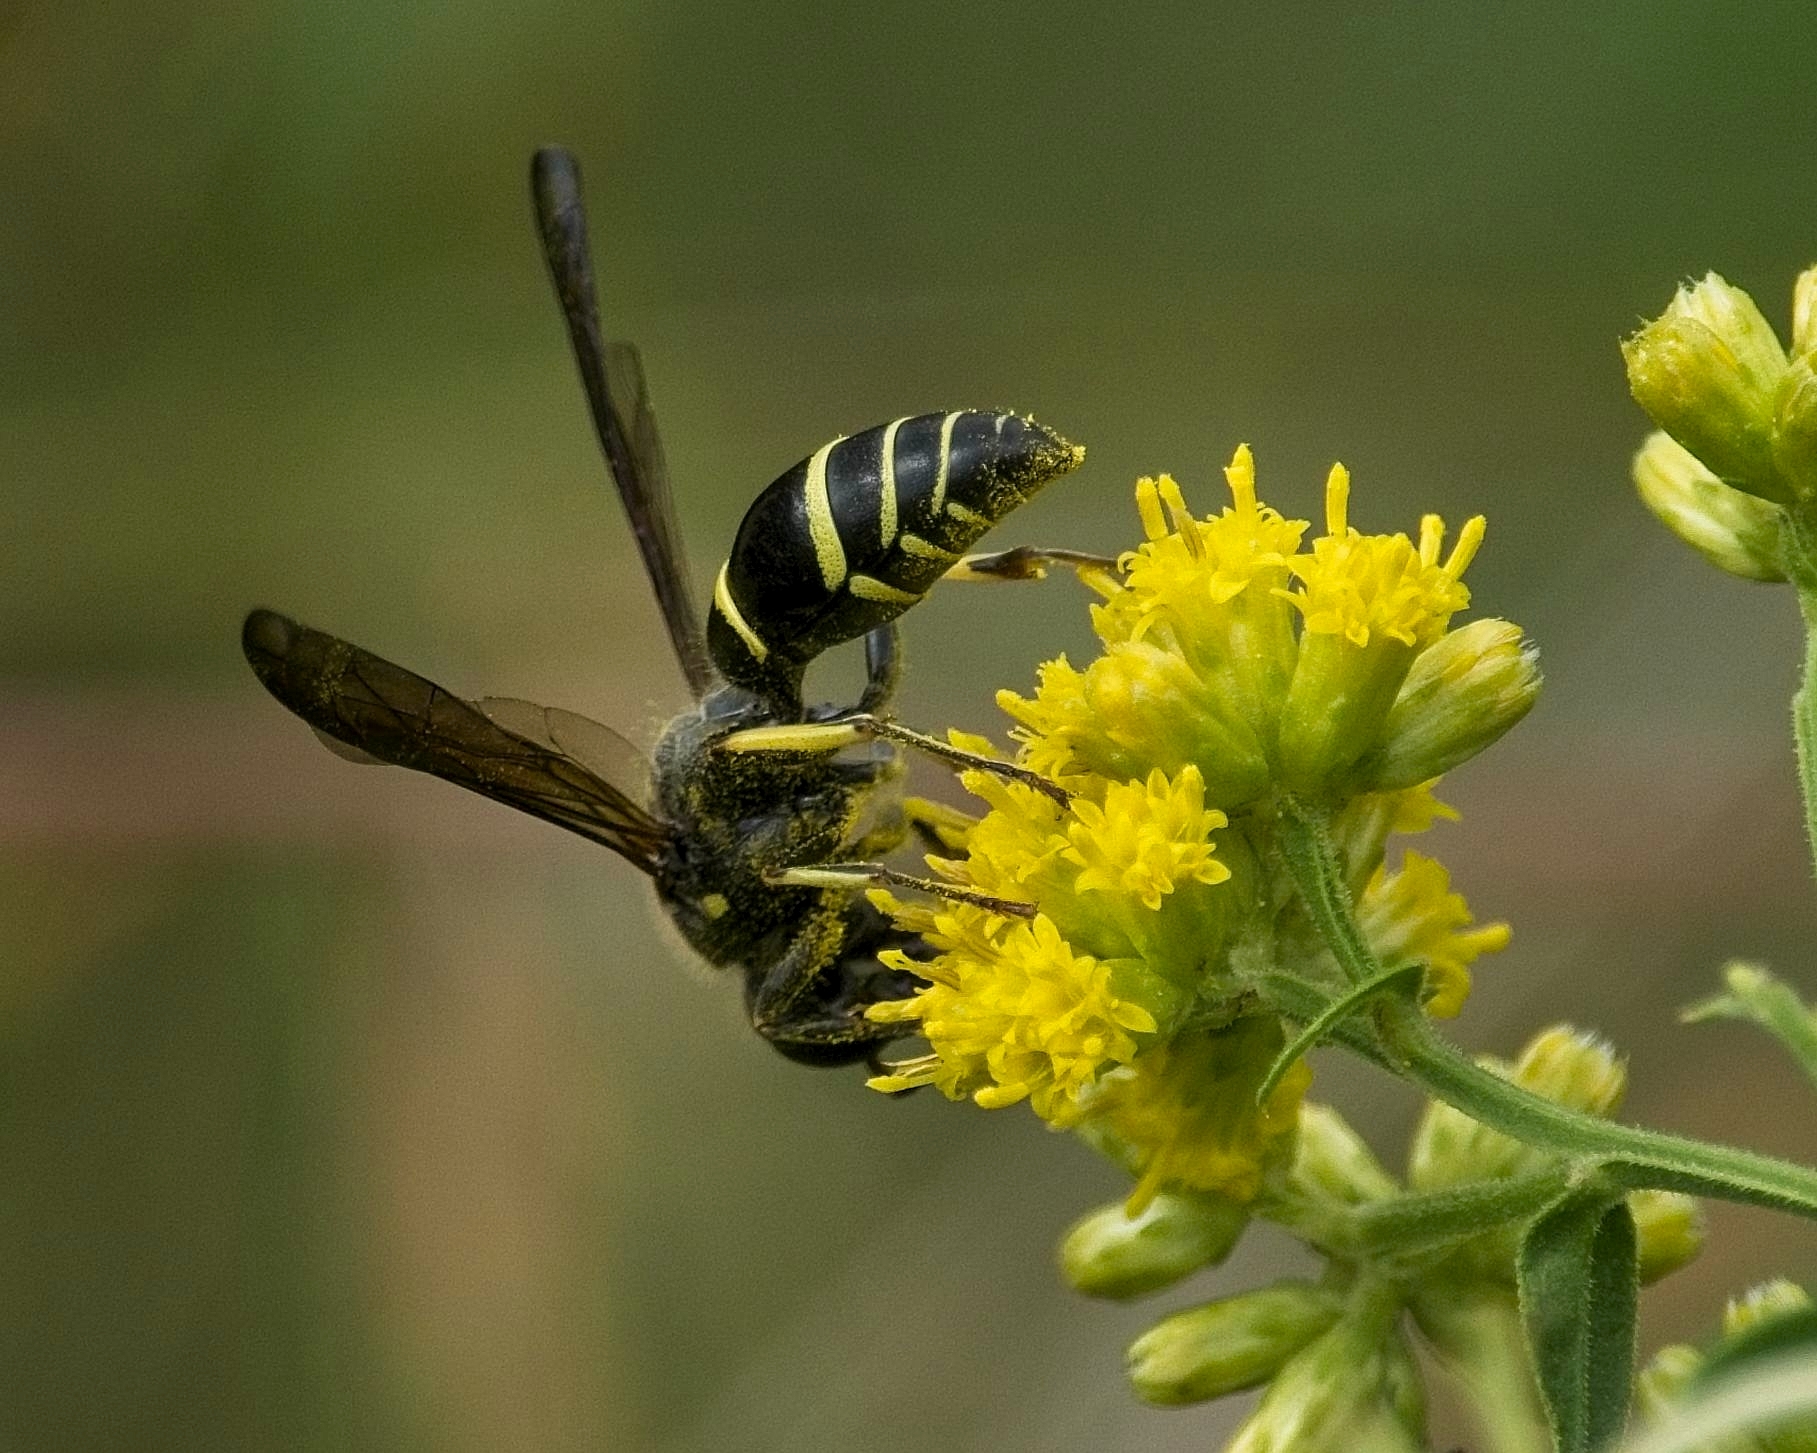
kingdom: Animalia
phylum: Arthropoda
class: Insecta
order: Hymenoptera
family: Vespidae
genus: Ancistrocerus
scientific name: Ancistrocerus
